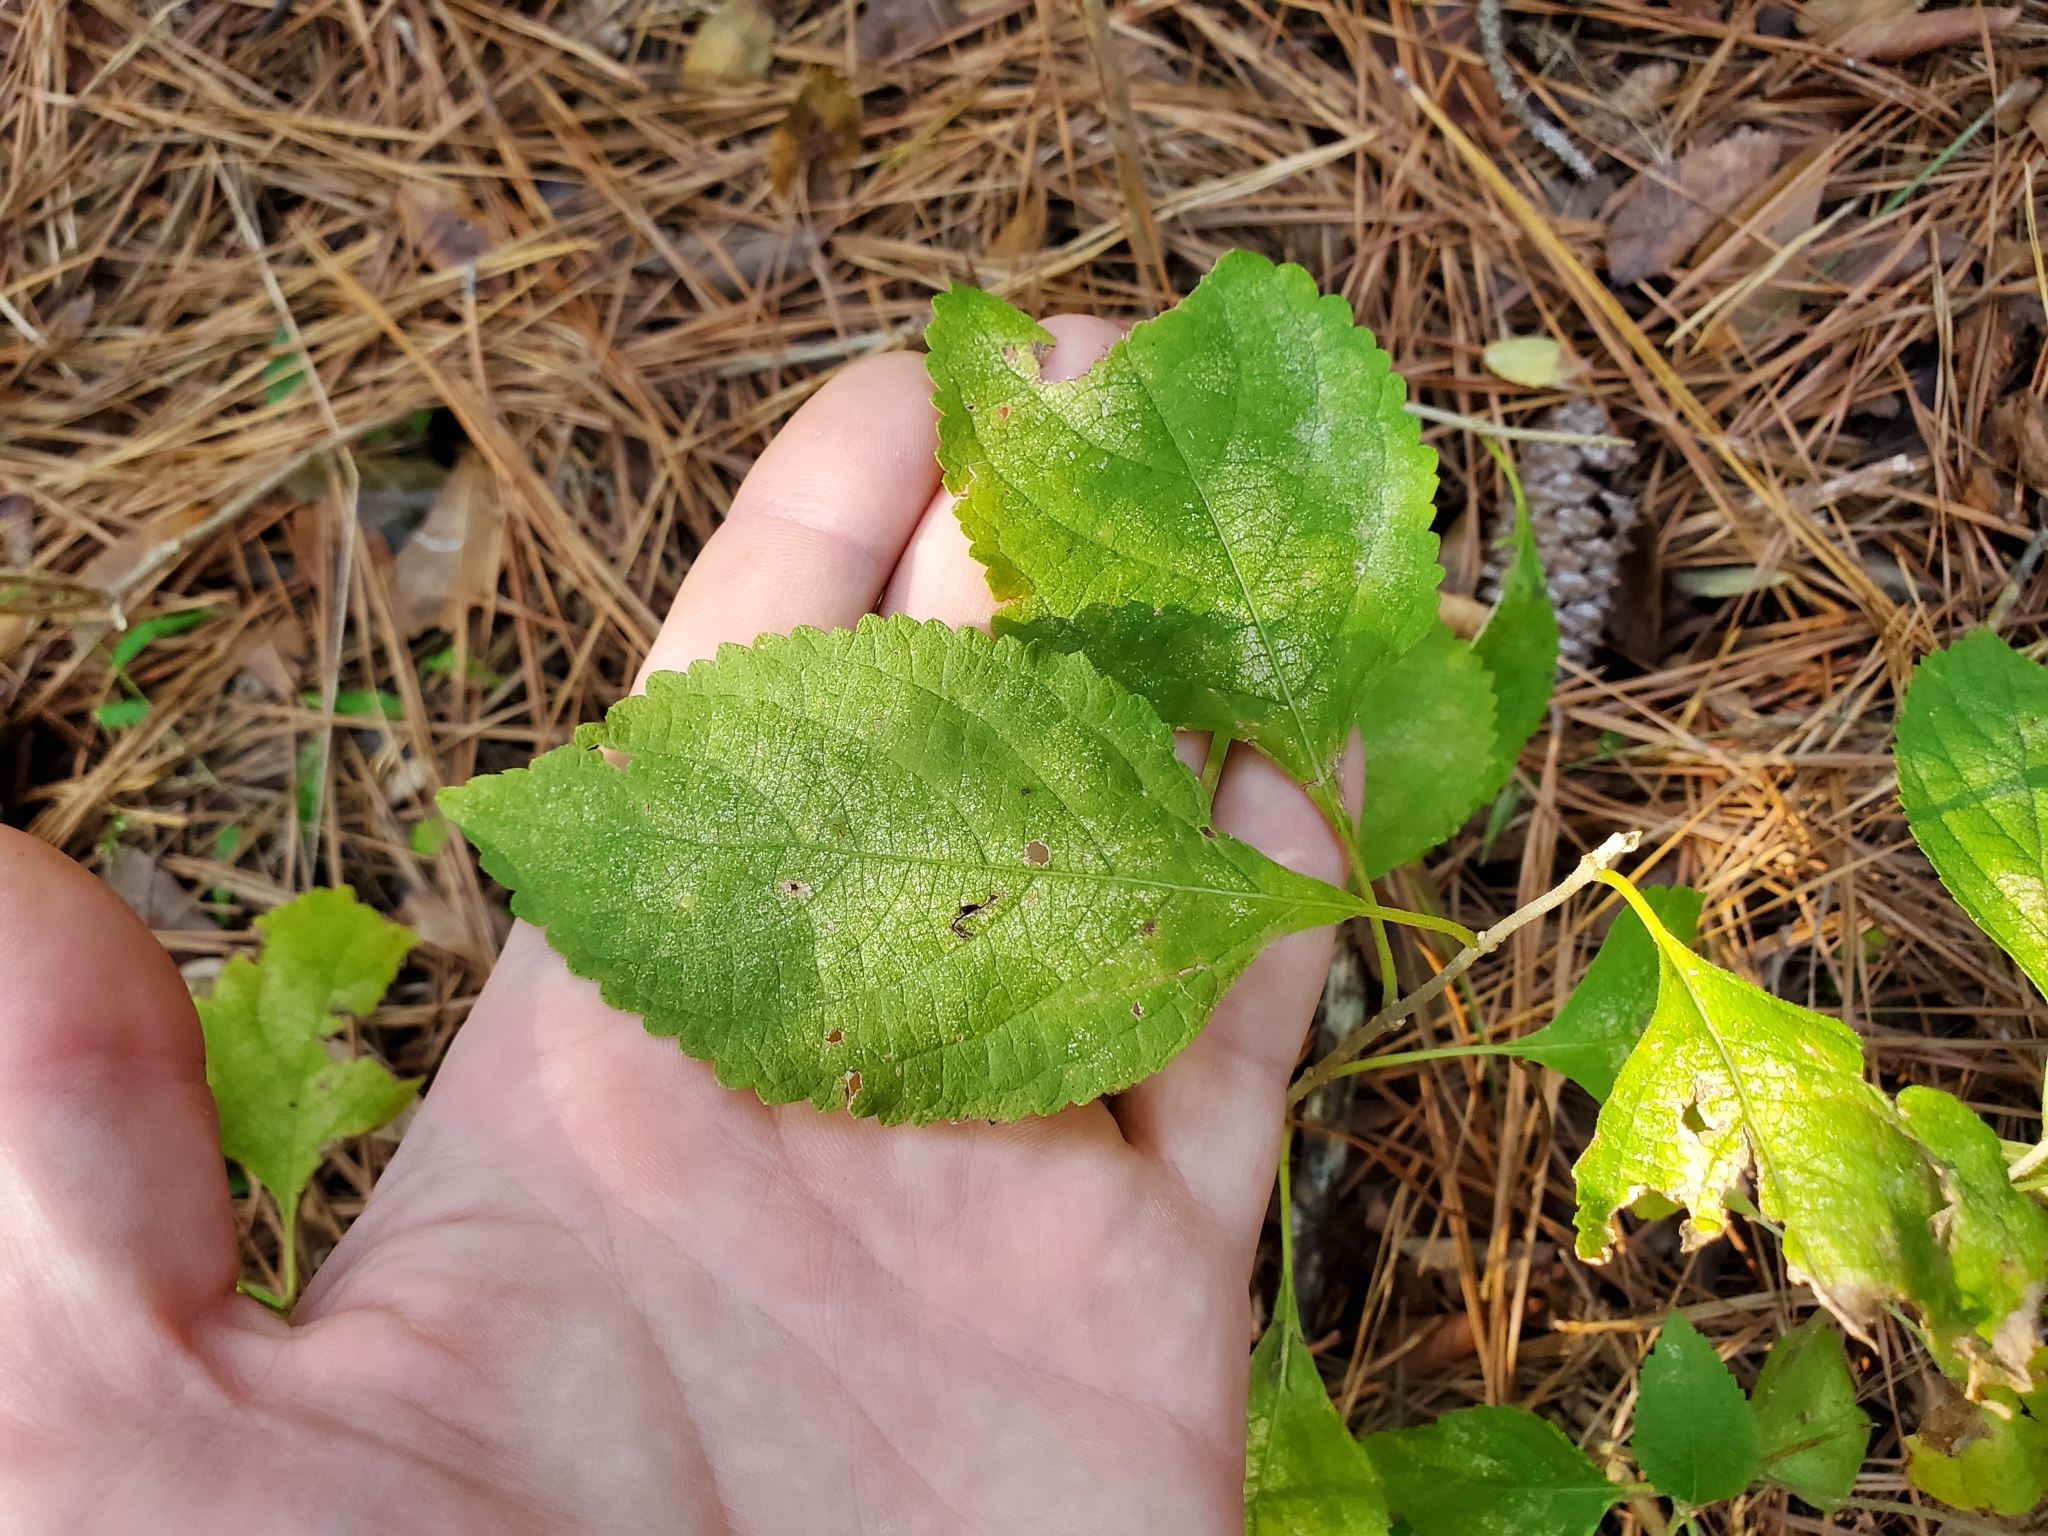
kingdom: Plantae
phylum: Tracheophyta
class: Magnoliopsida
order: Lamiales
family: Lamiaceae
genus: Callicarpa
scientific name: Callicarpa americana
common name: American beautyberry
